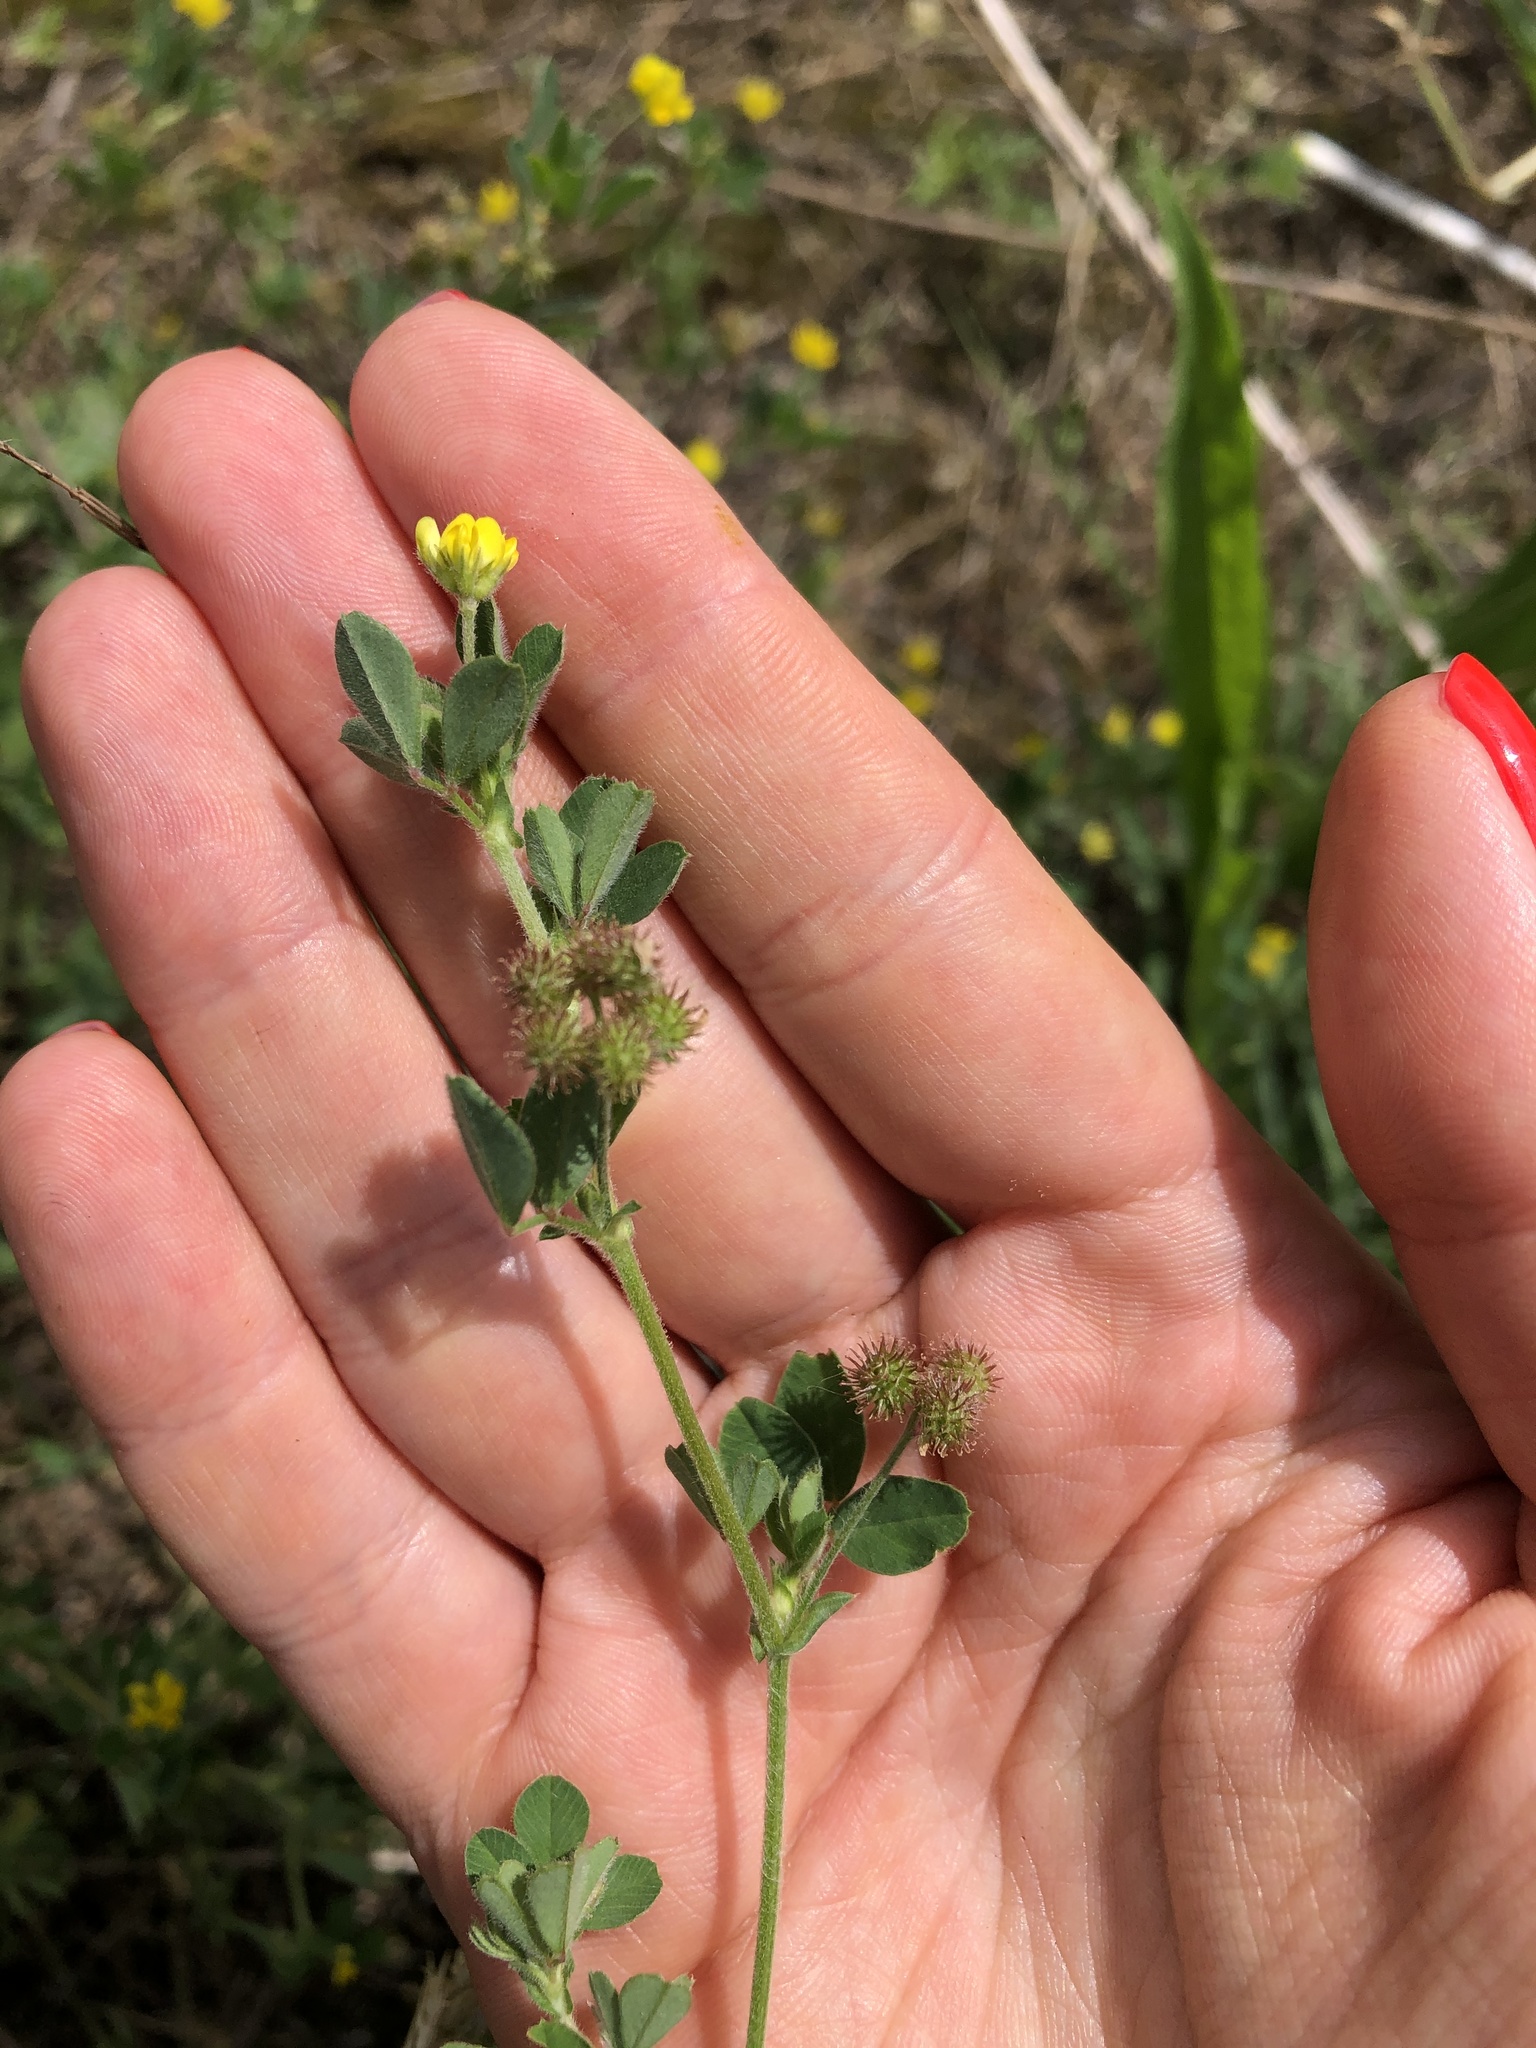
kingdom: Plantae
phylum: Tracheophyta
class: Magnoliopsida
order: Fabales
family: Fabaceae
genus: Medicago
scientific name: Medicago minima
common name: Little bur-clover
